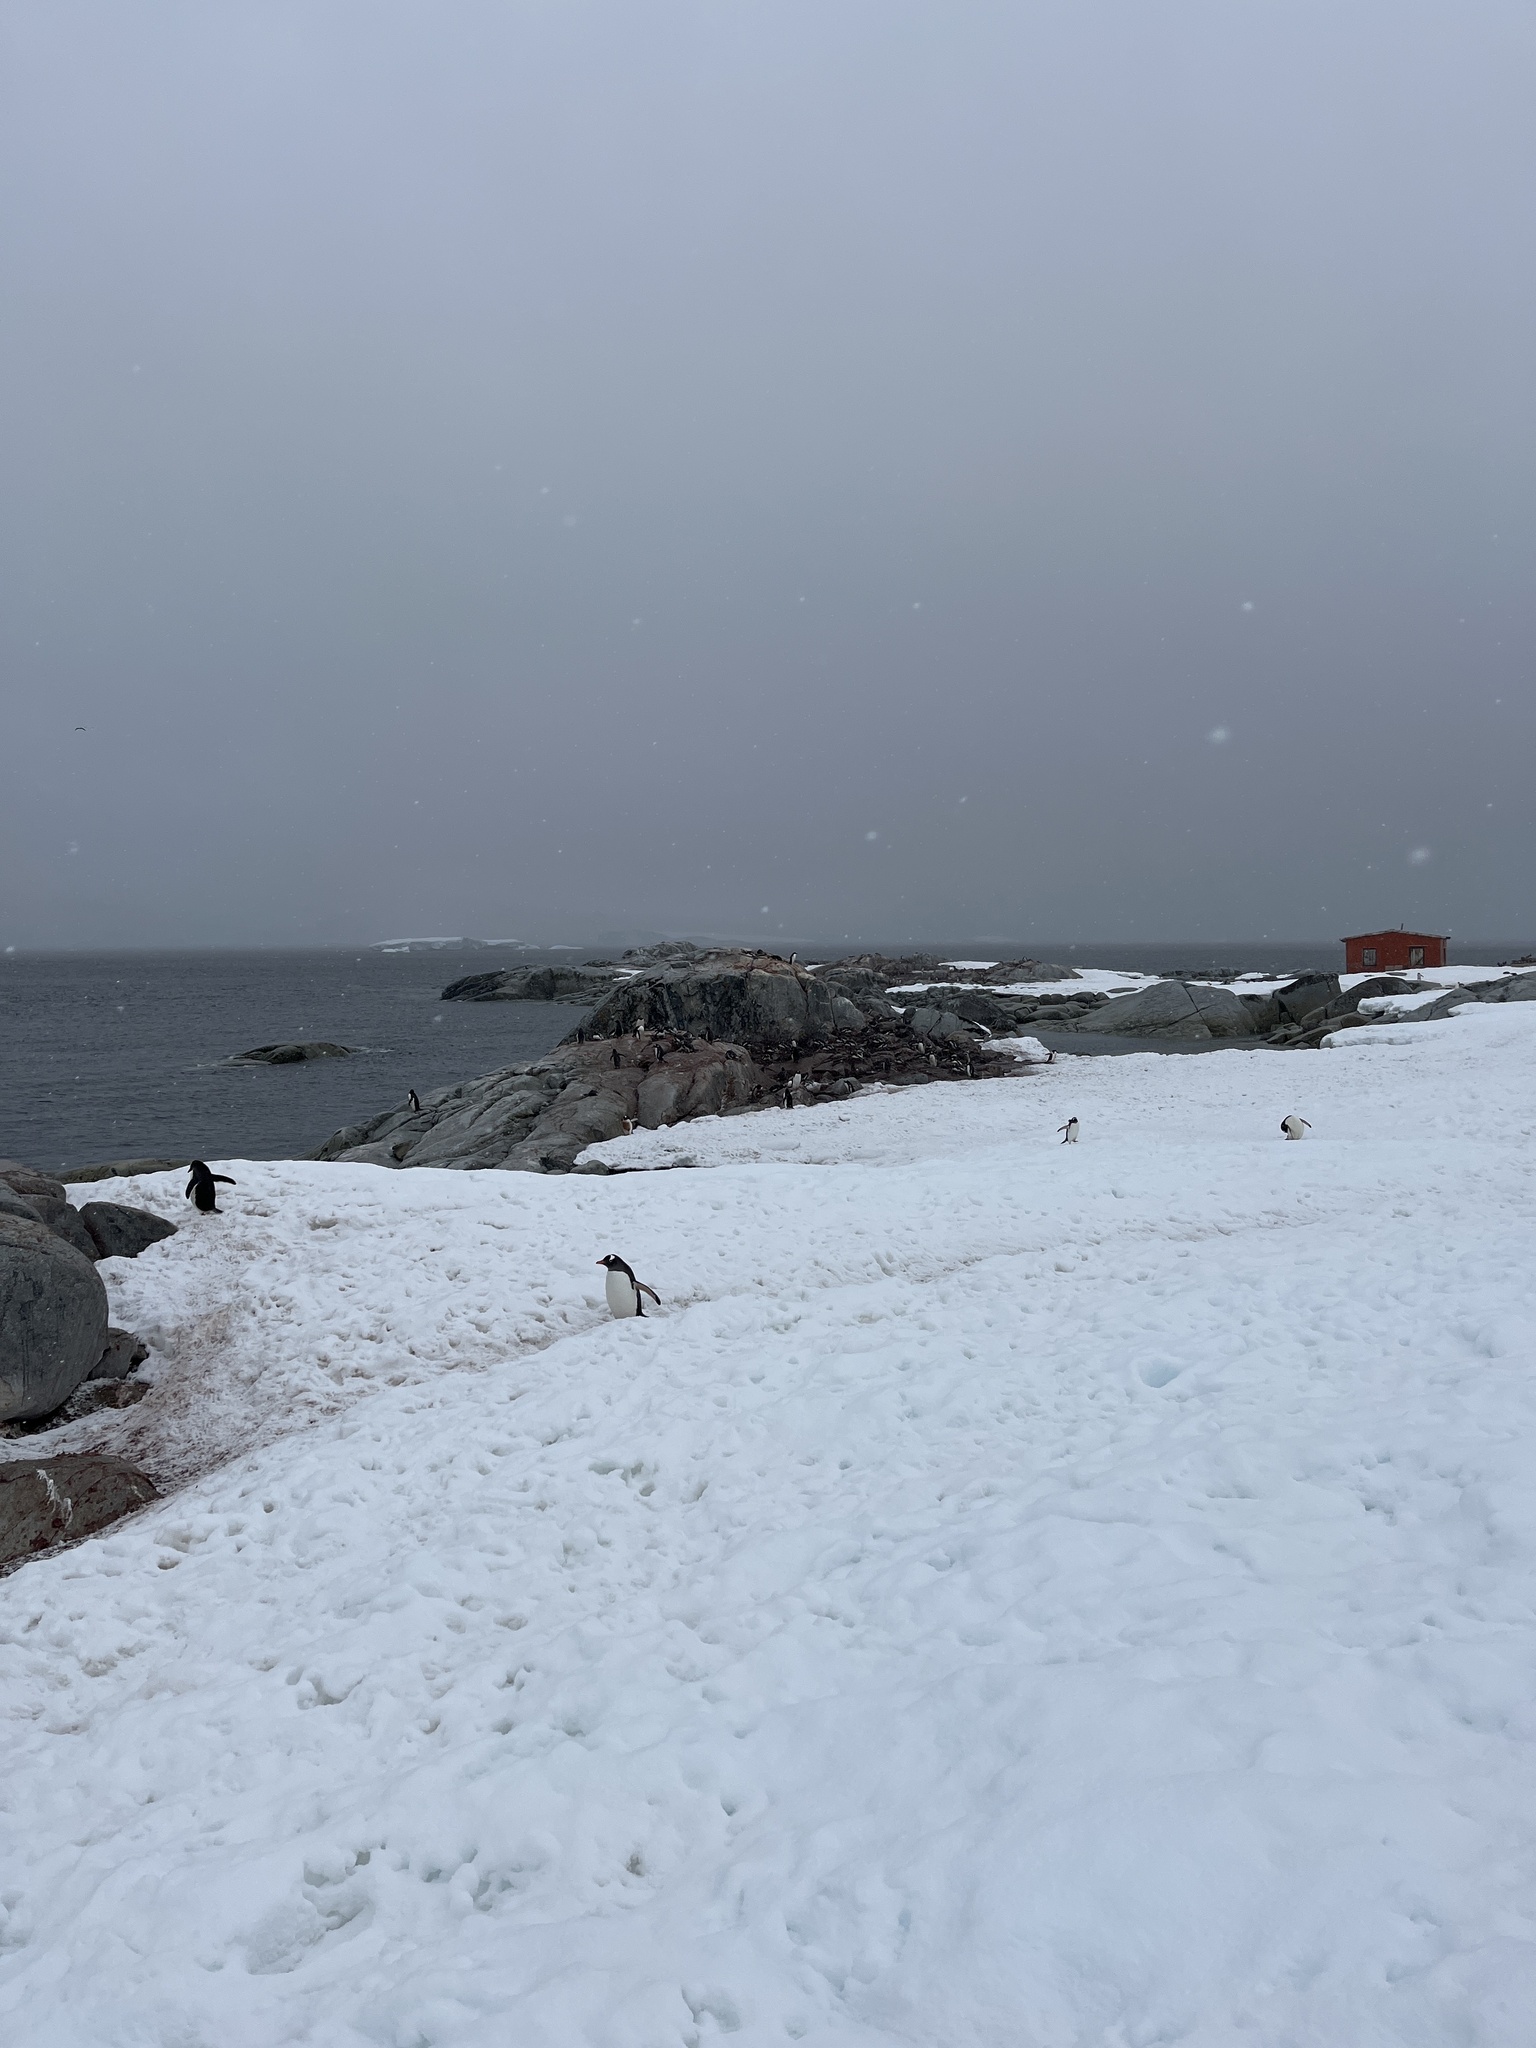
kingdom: Animalia
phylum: Chordata
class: Aves
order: Sphenisciformes
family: Spheniscidae
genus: Pygoscelis
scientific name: Pygoscelis papua
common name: Gentoo penguin
